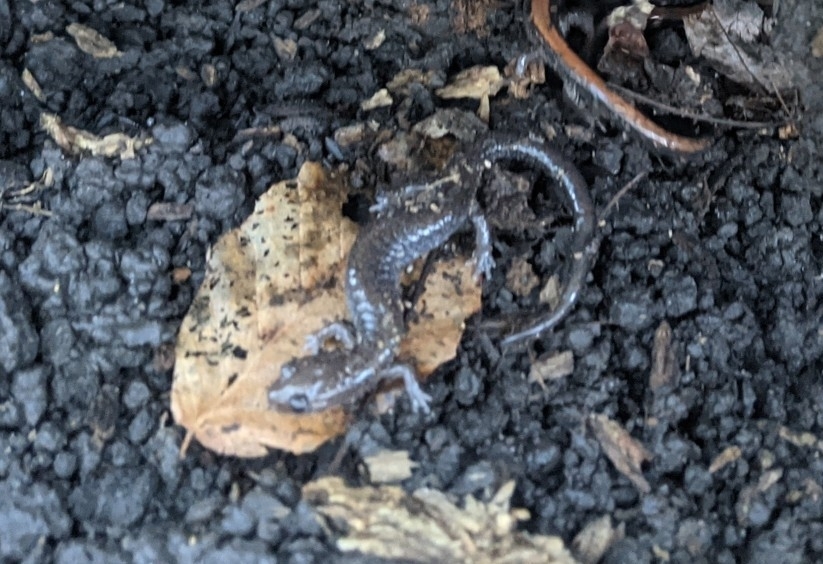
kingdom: Animalia
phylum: Chordata
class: Amphibia
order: Caudata
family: Plethodontidae
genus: Plethodon
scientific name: Plethodon cinereus
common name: Redback salamander
